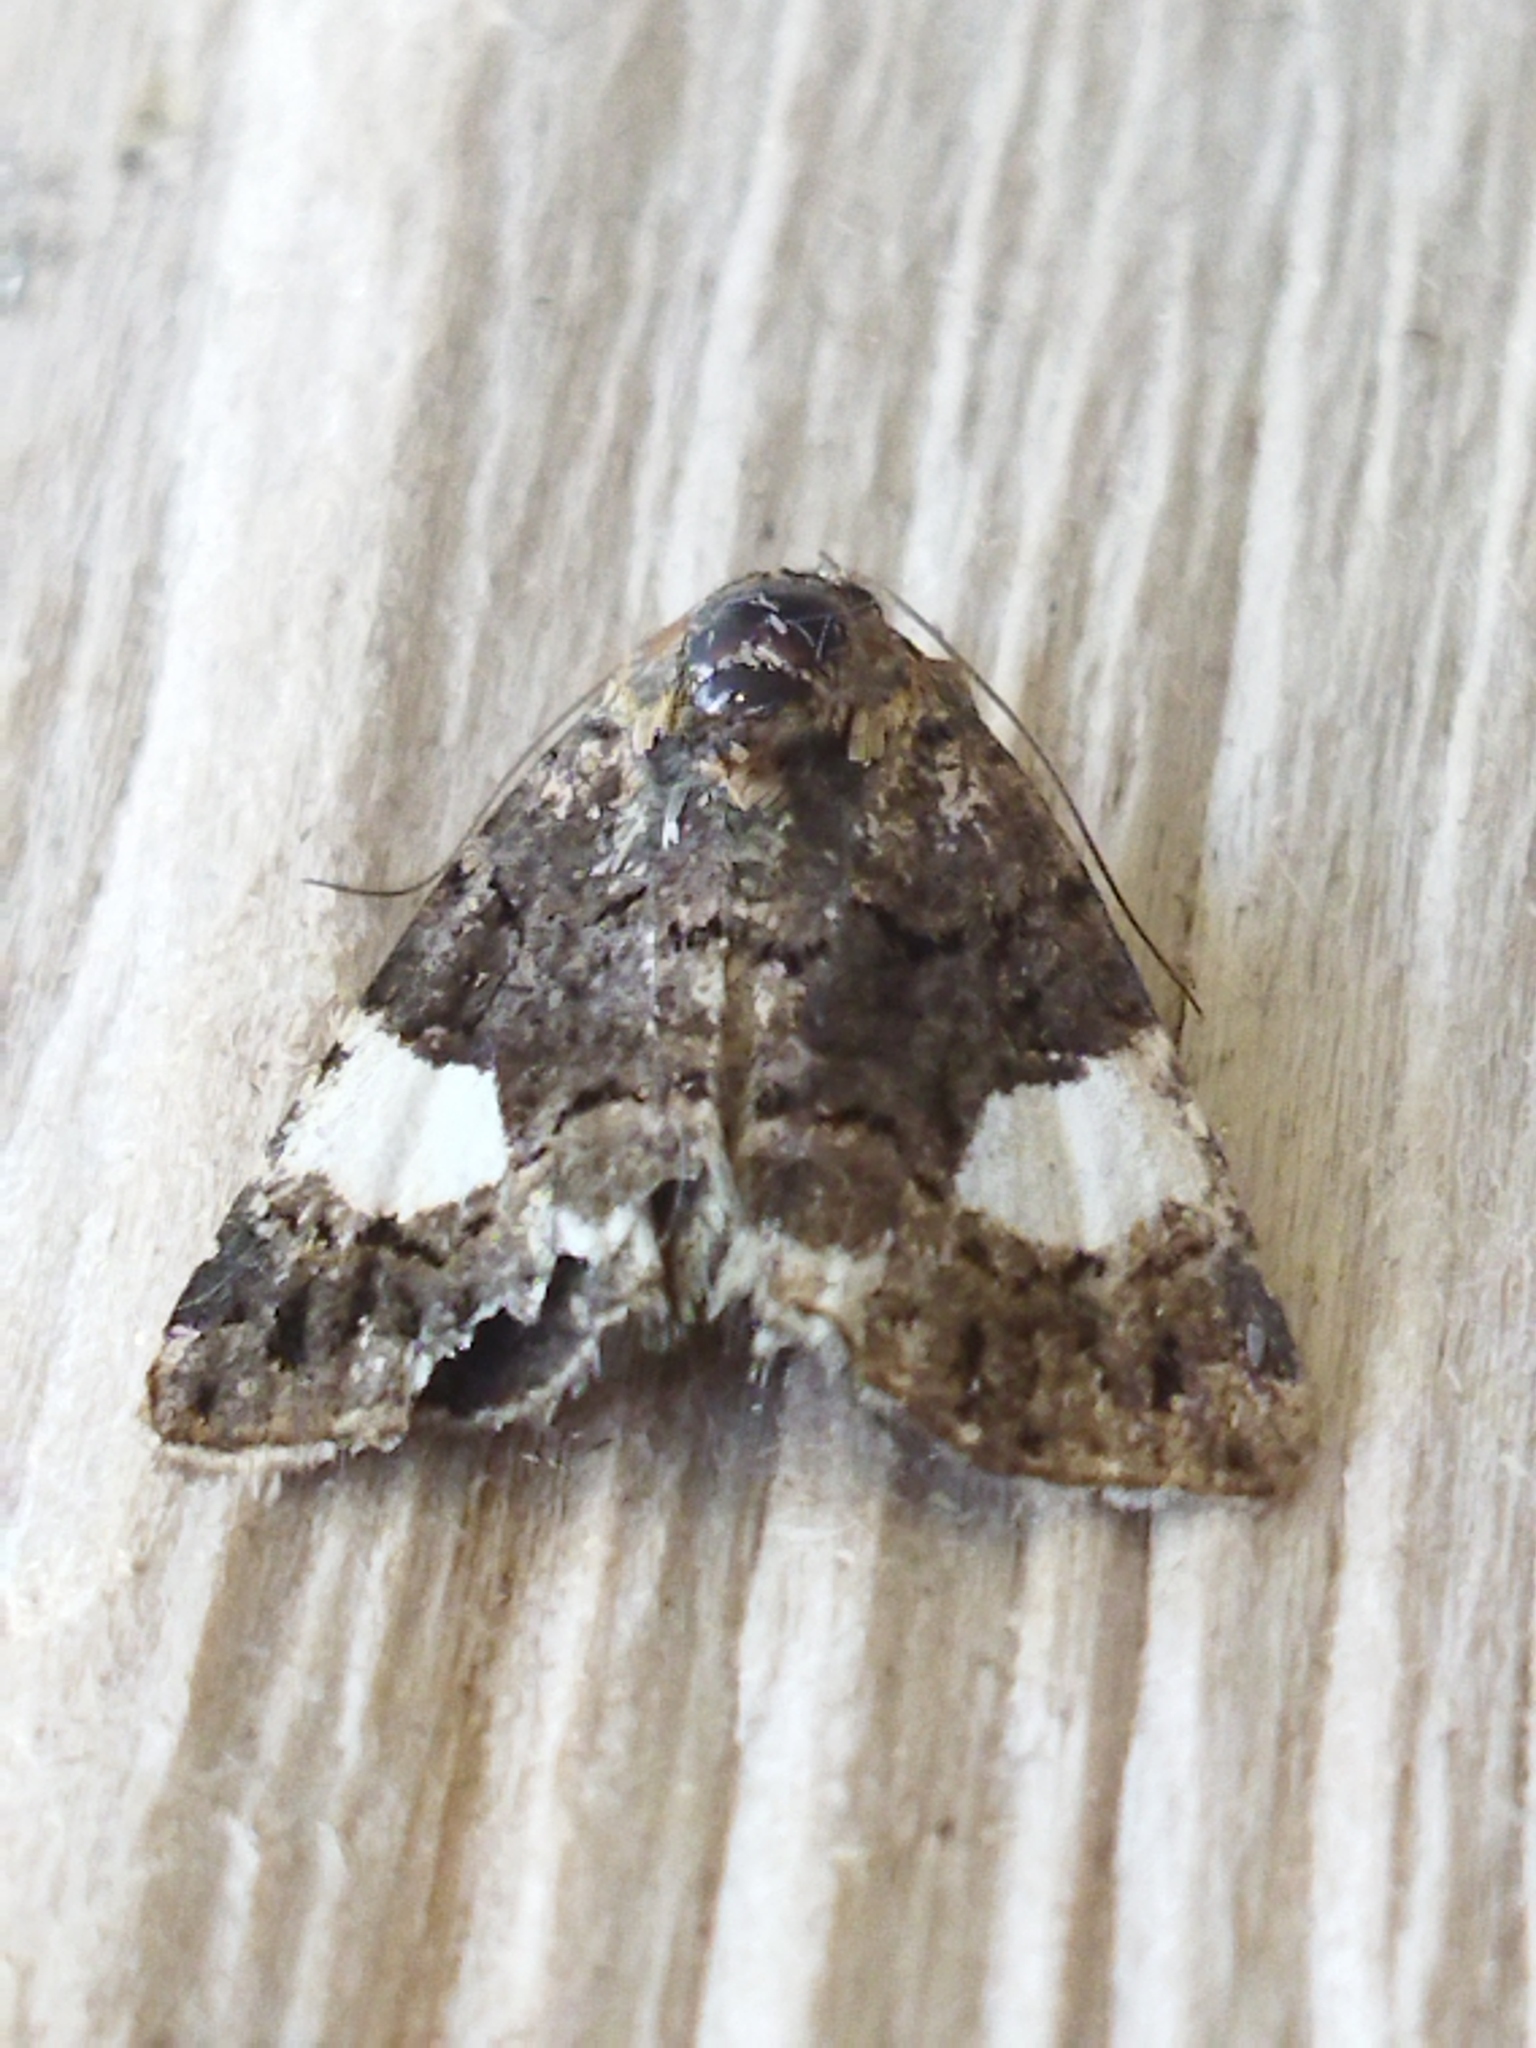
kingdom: Animalia
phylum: Arthropoda
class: Insecta
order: Lepidoptera
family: Erebidae
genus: Tyta
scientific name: Tyta luctuosa
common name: Four-spotted
